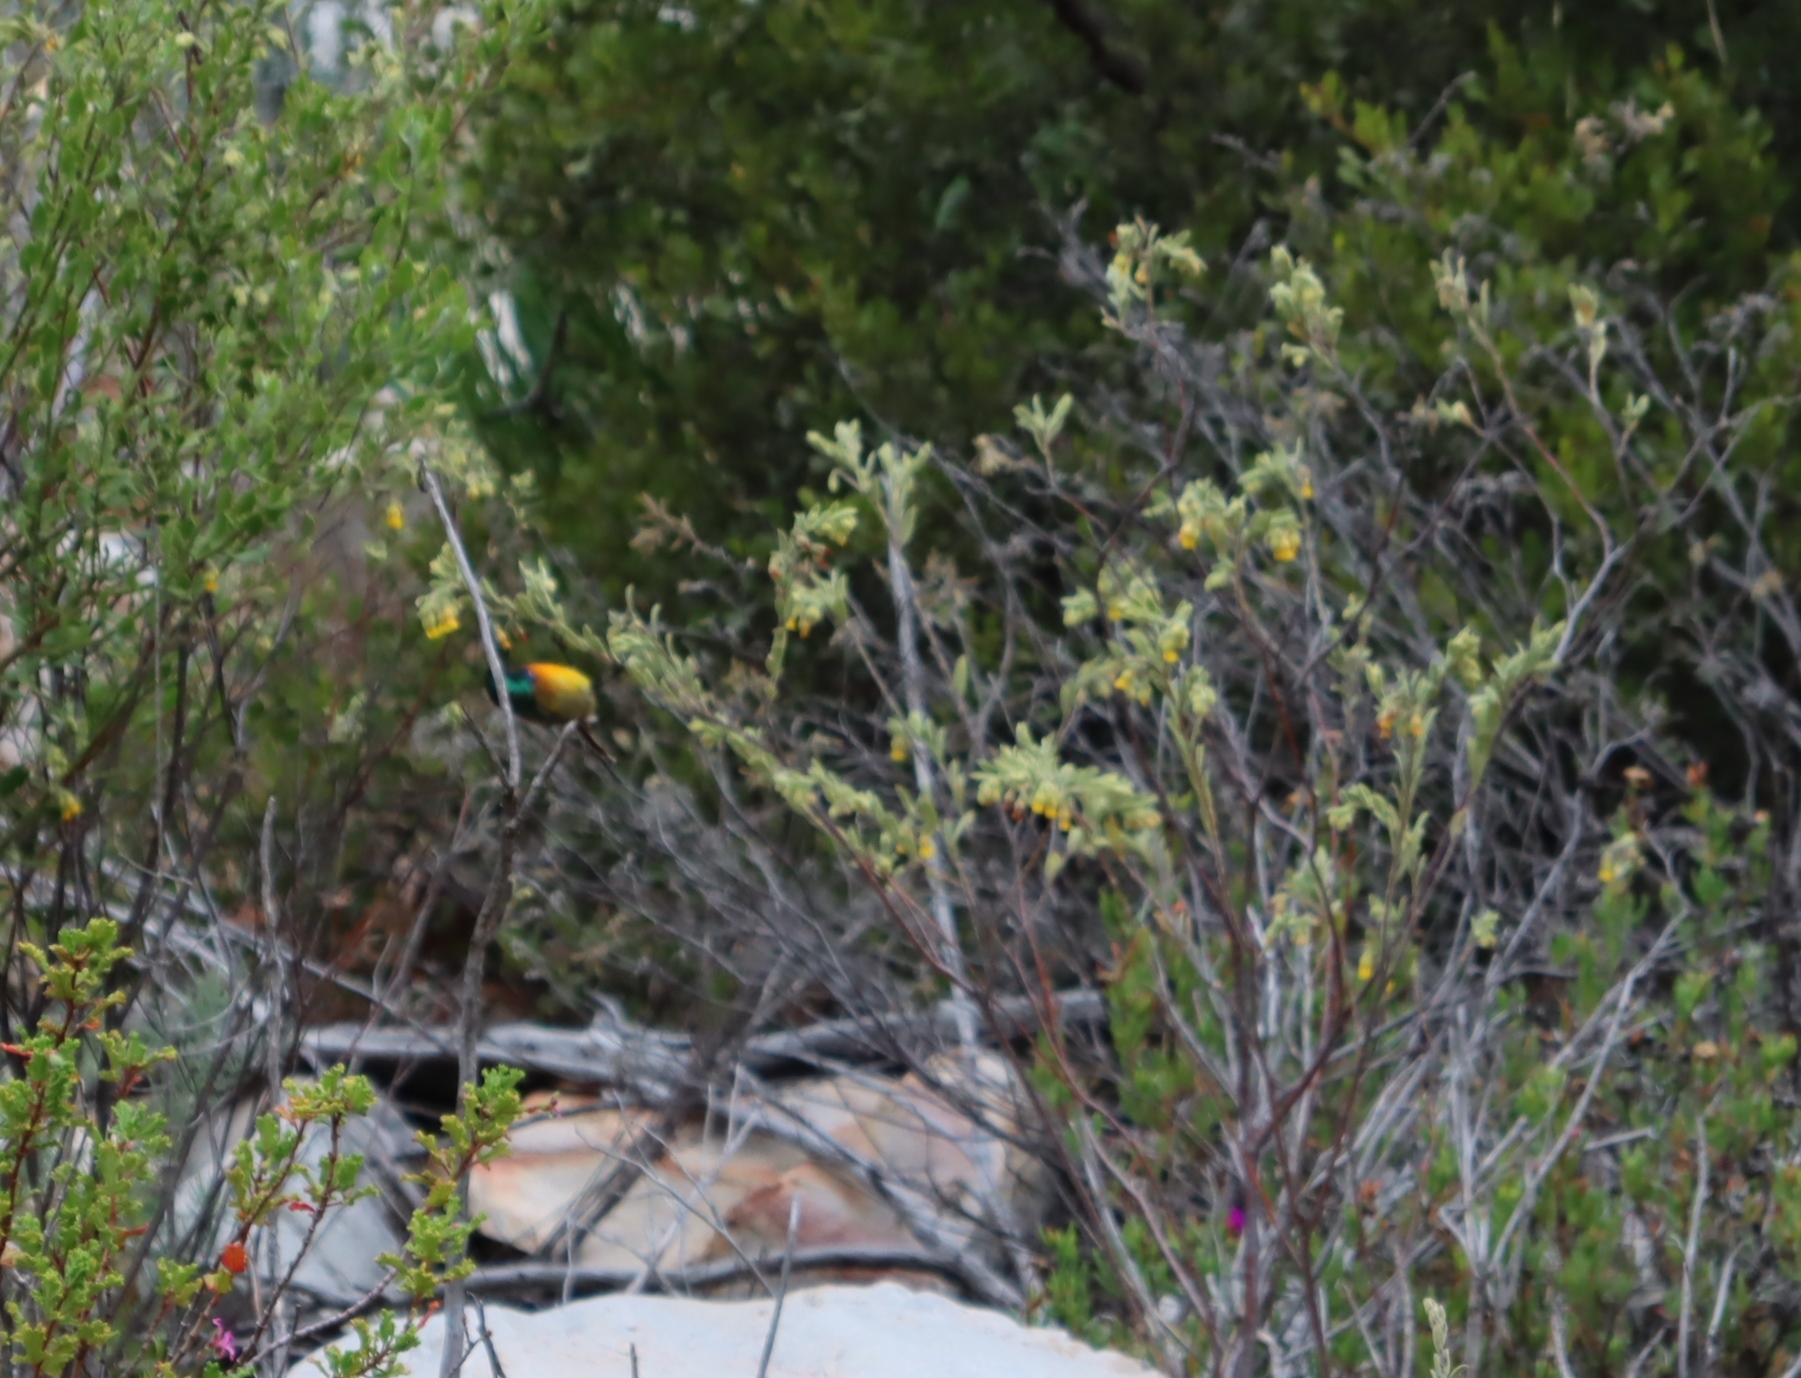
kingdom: Animalia
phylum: Chordata
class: Aves
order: Passeriformes
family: Nectariniidae
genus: Anthobaphes
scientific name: Anthobaphes violacea
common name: Orange-breasted sunbird
